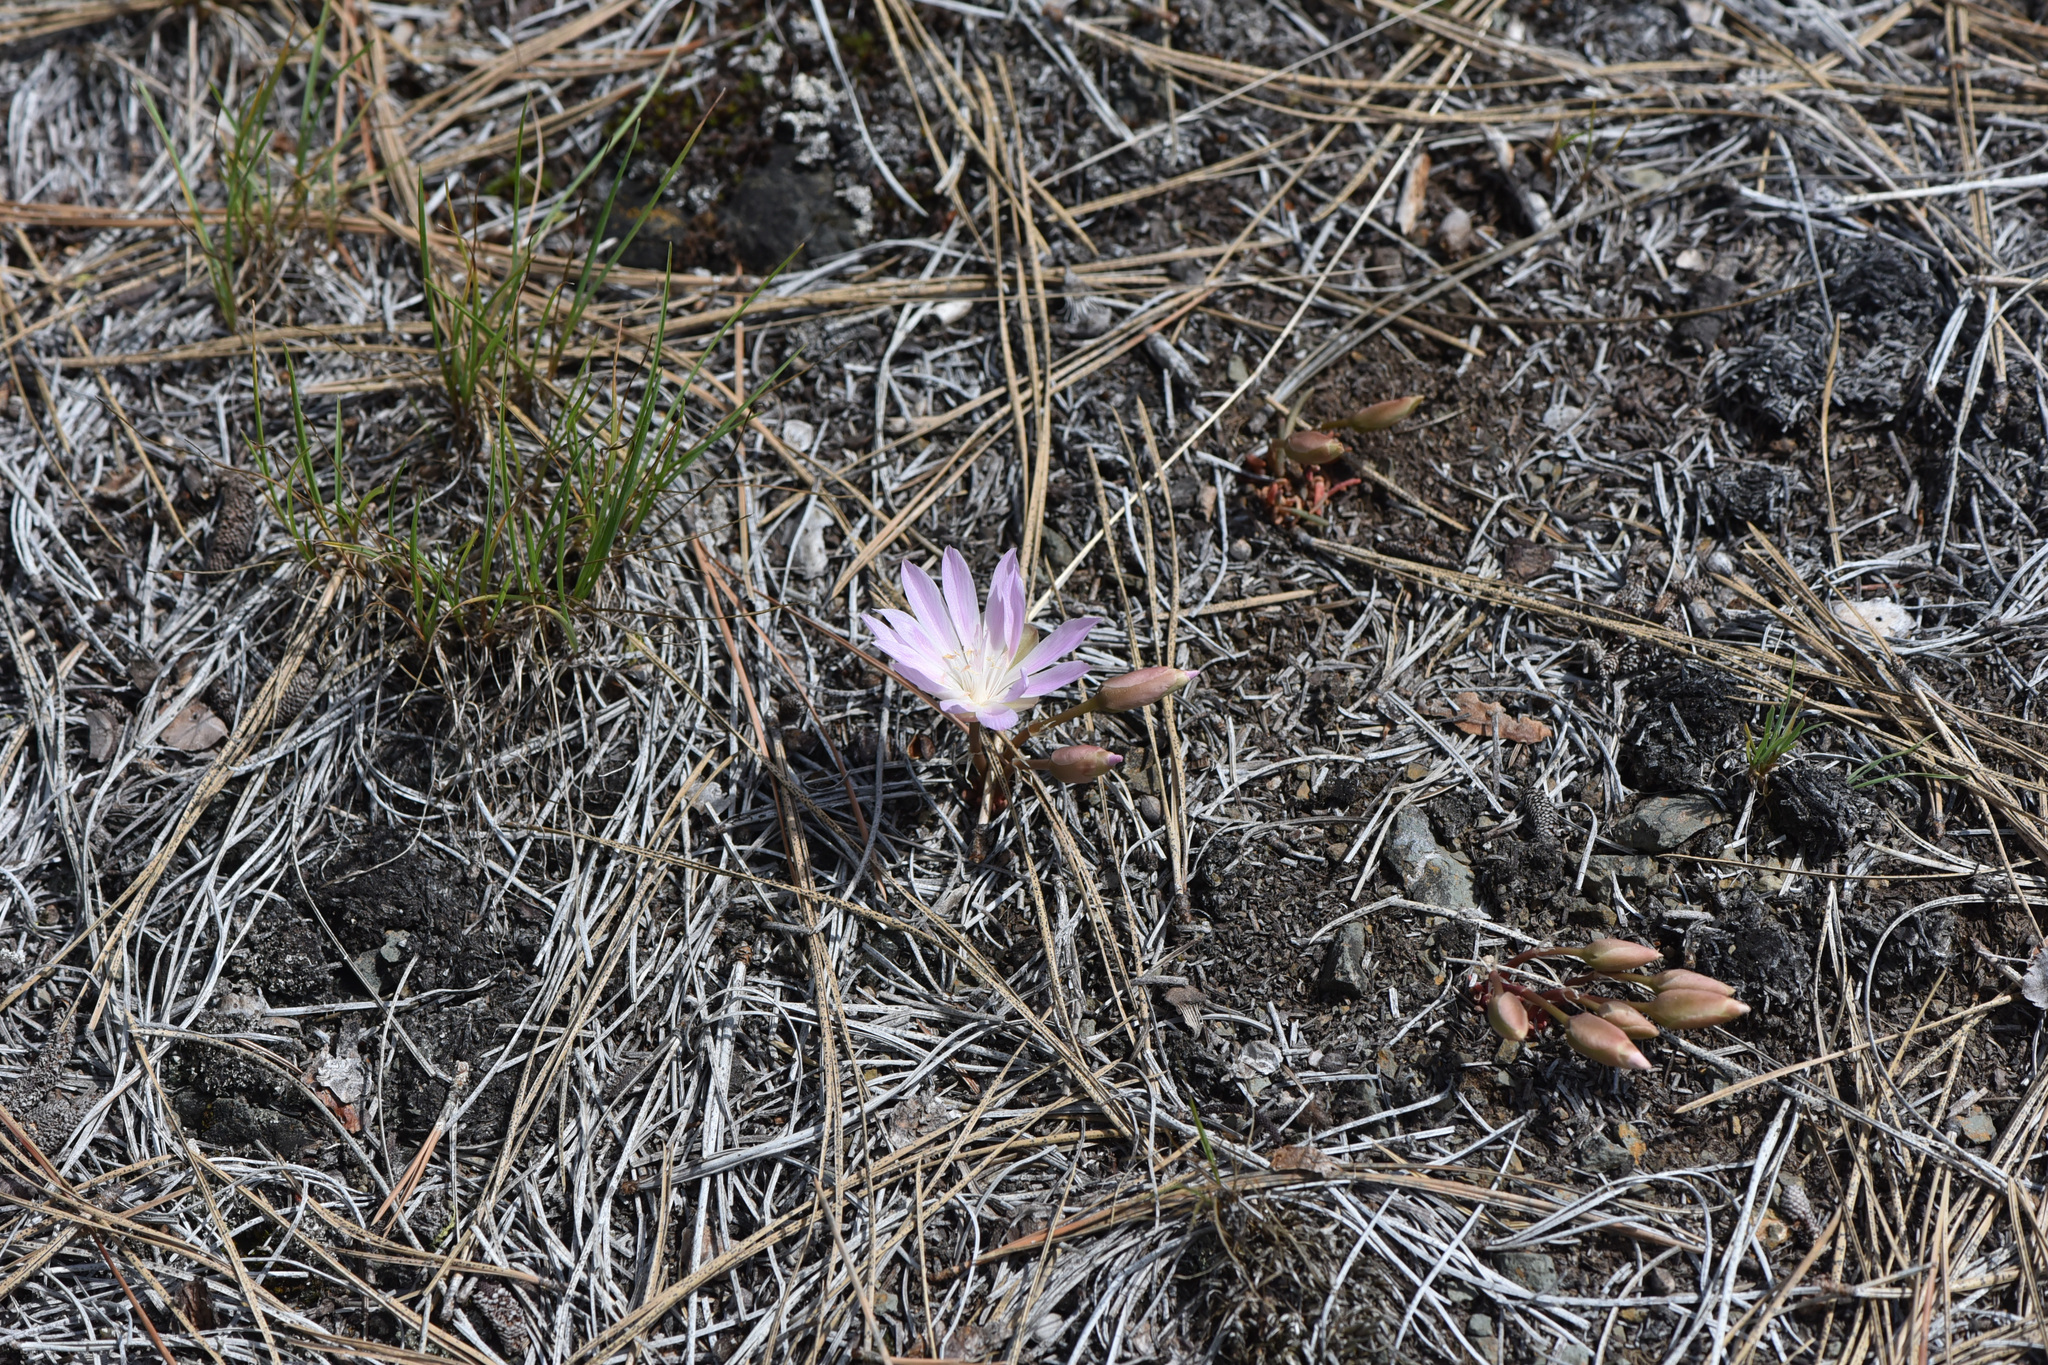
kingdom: Plantae
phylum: Tracheophyta
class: Magnoliopsida
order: Caryophyllales
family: Montiaceae
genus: Lewisia
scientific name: Lewisia rediviva
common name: Bitter-root
